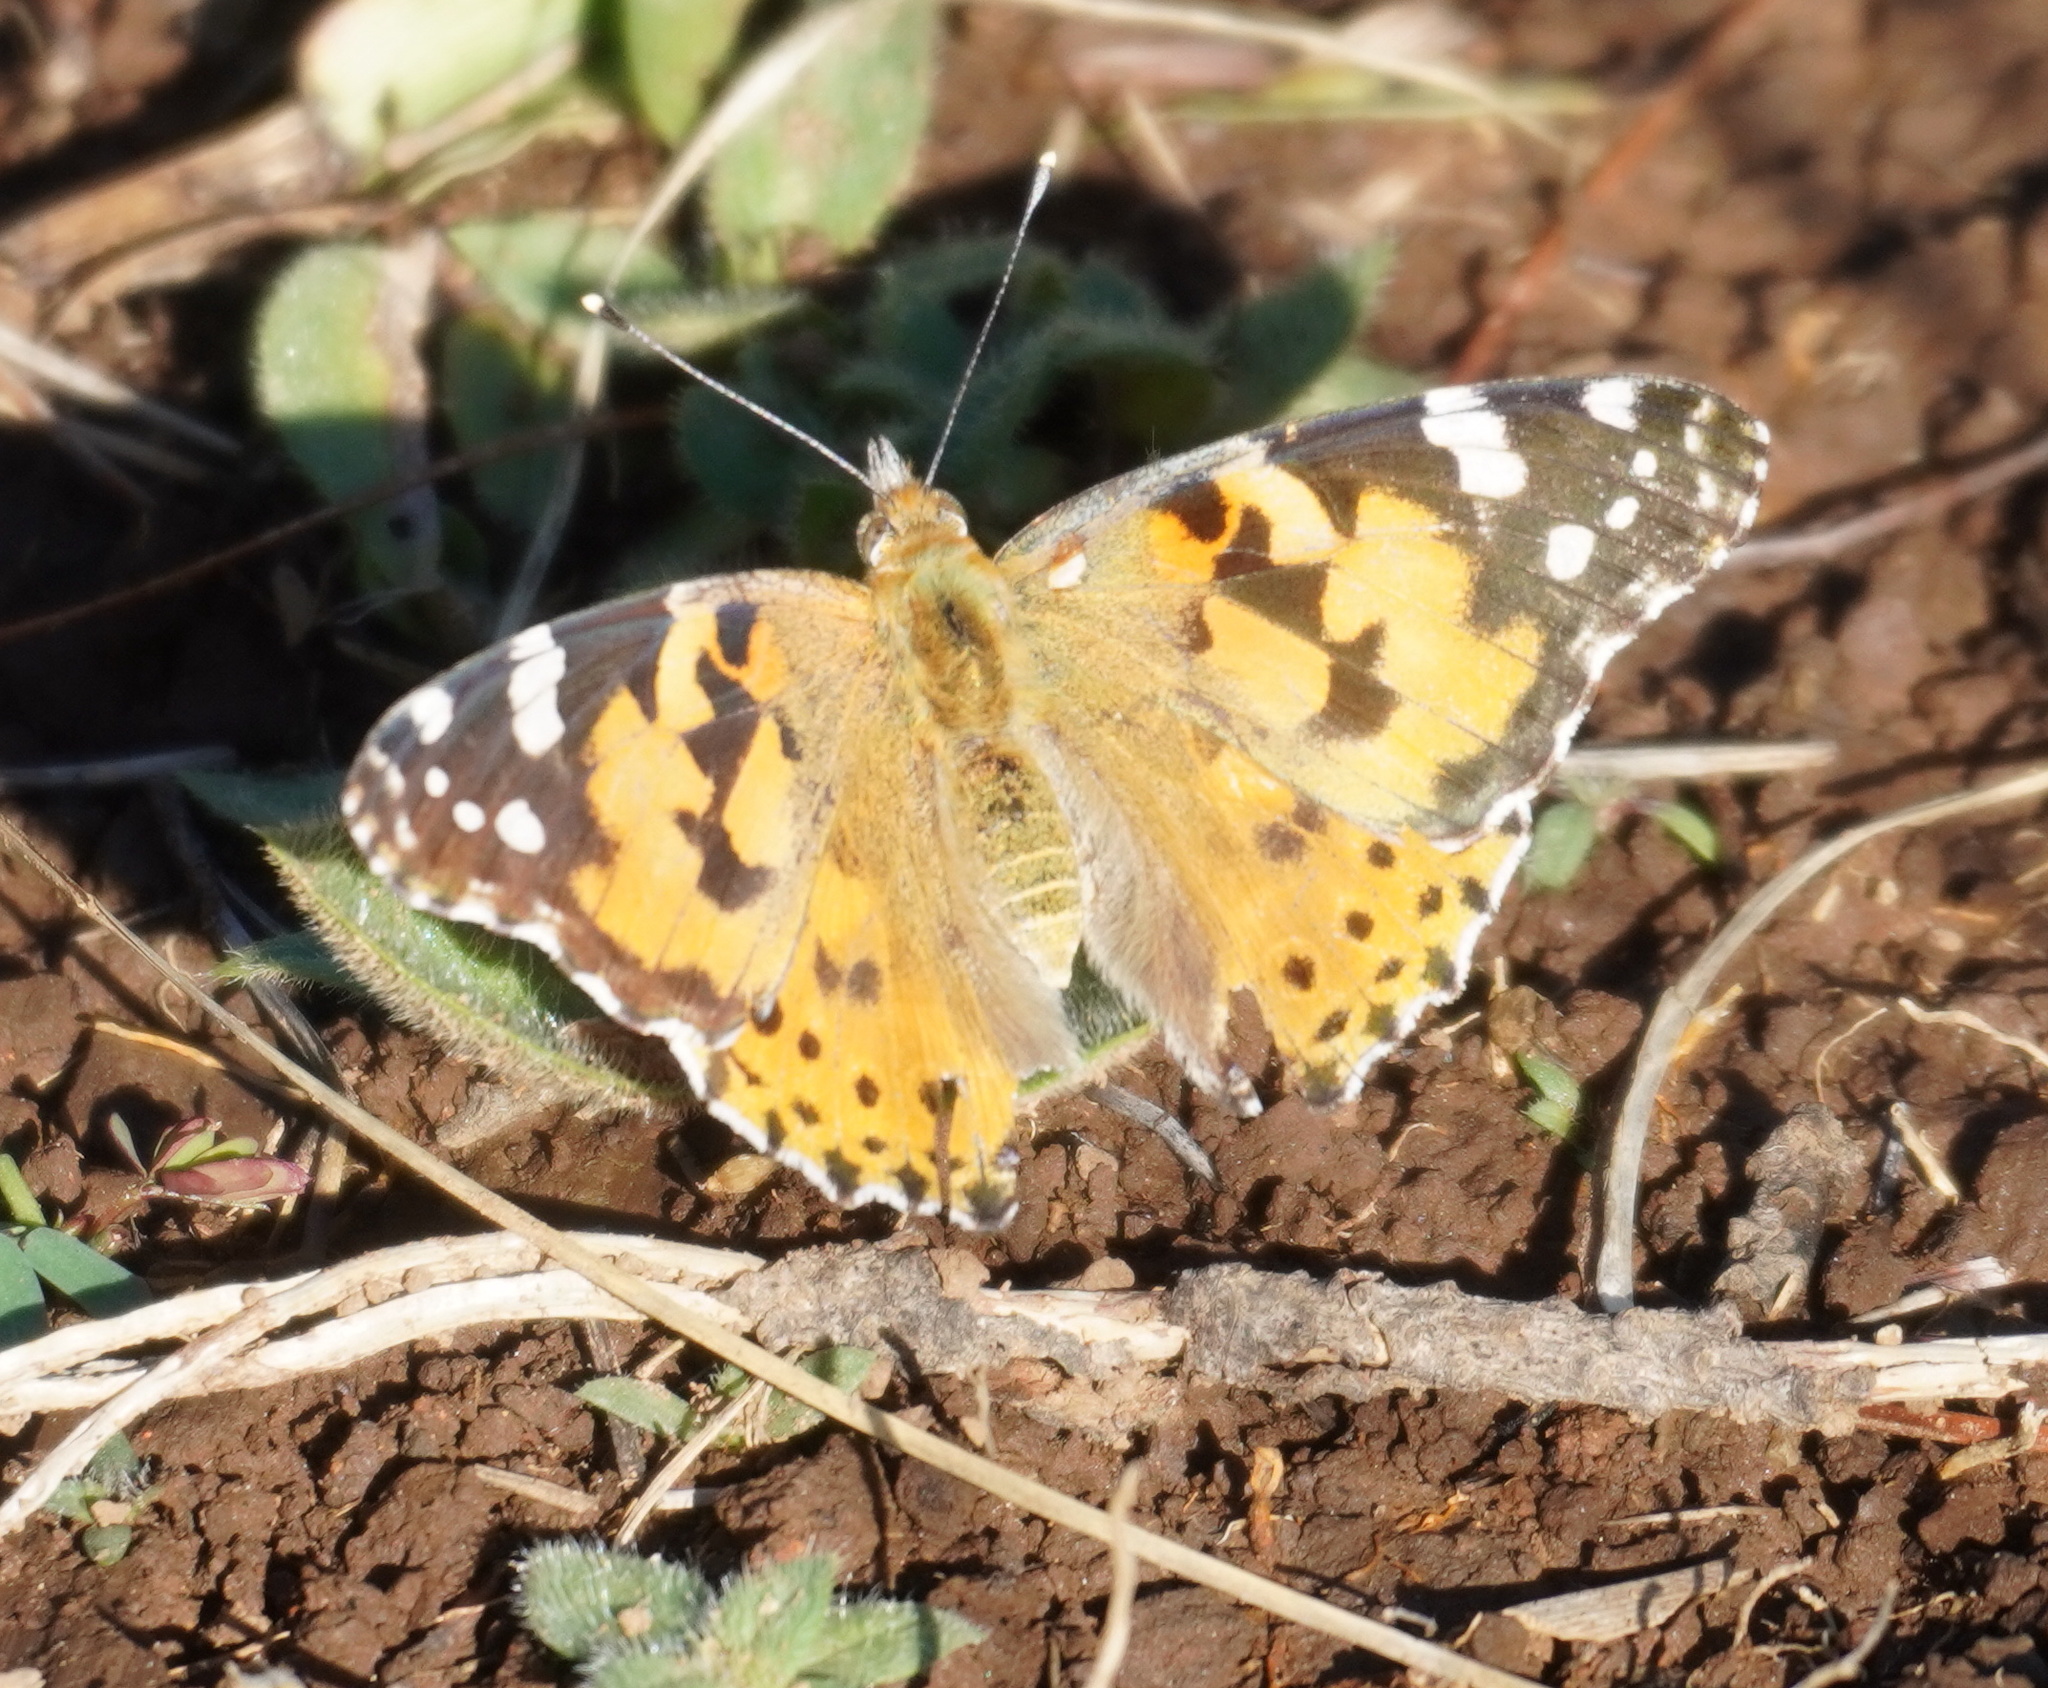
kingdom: Animalia
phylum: Arthropoda
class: Insecta
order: Lepidoptera
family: Nymphalidae
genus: Vanessa
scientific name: Vanessa cardui
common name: Painted lady
